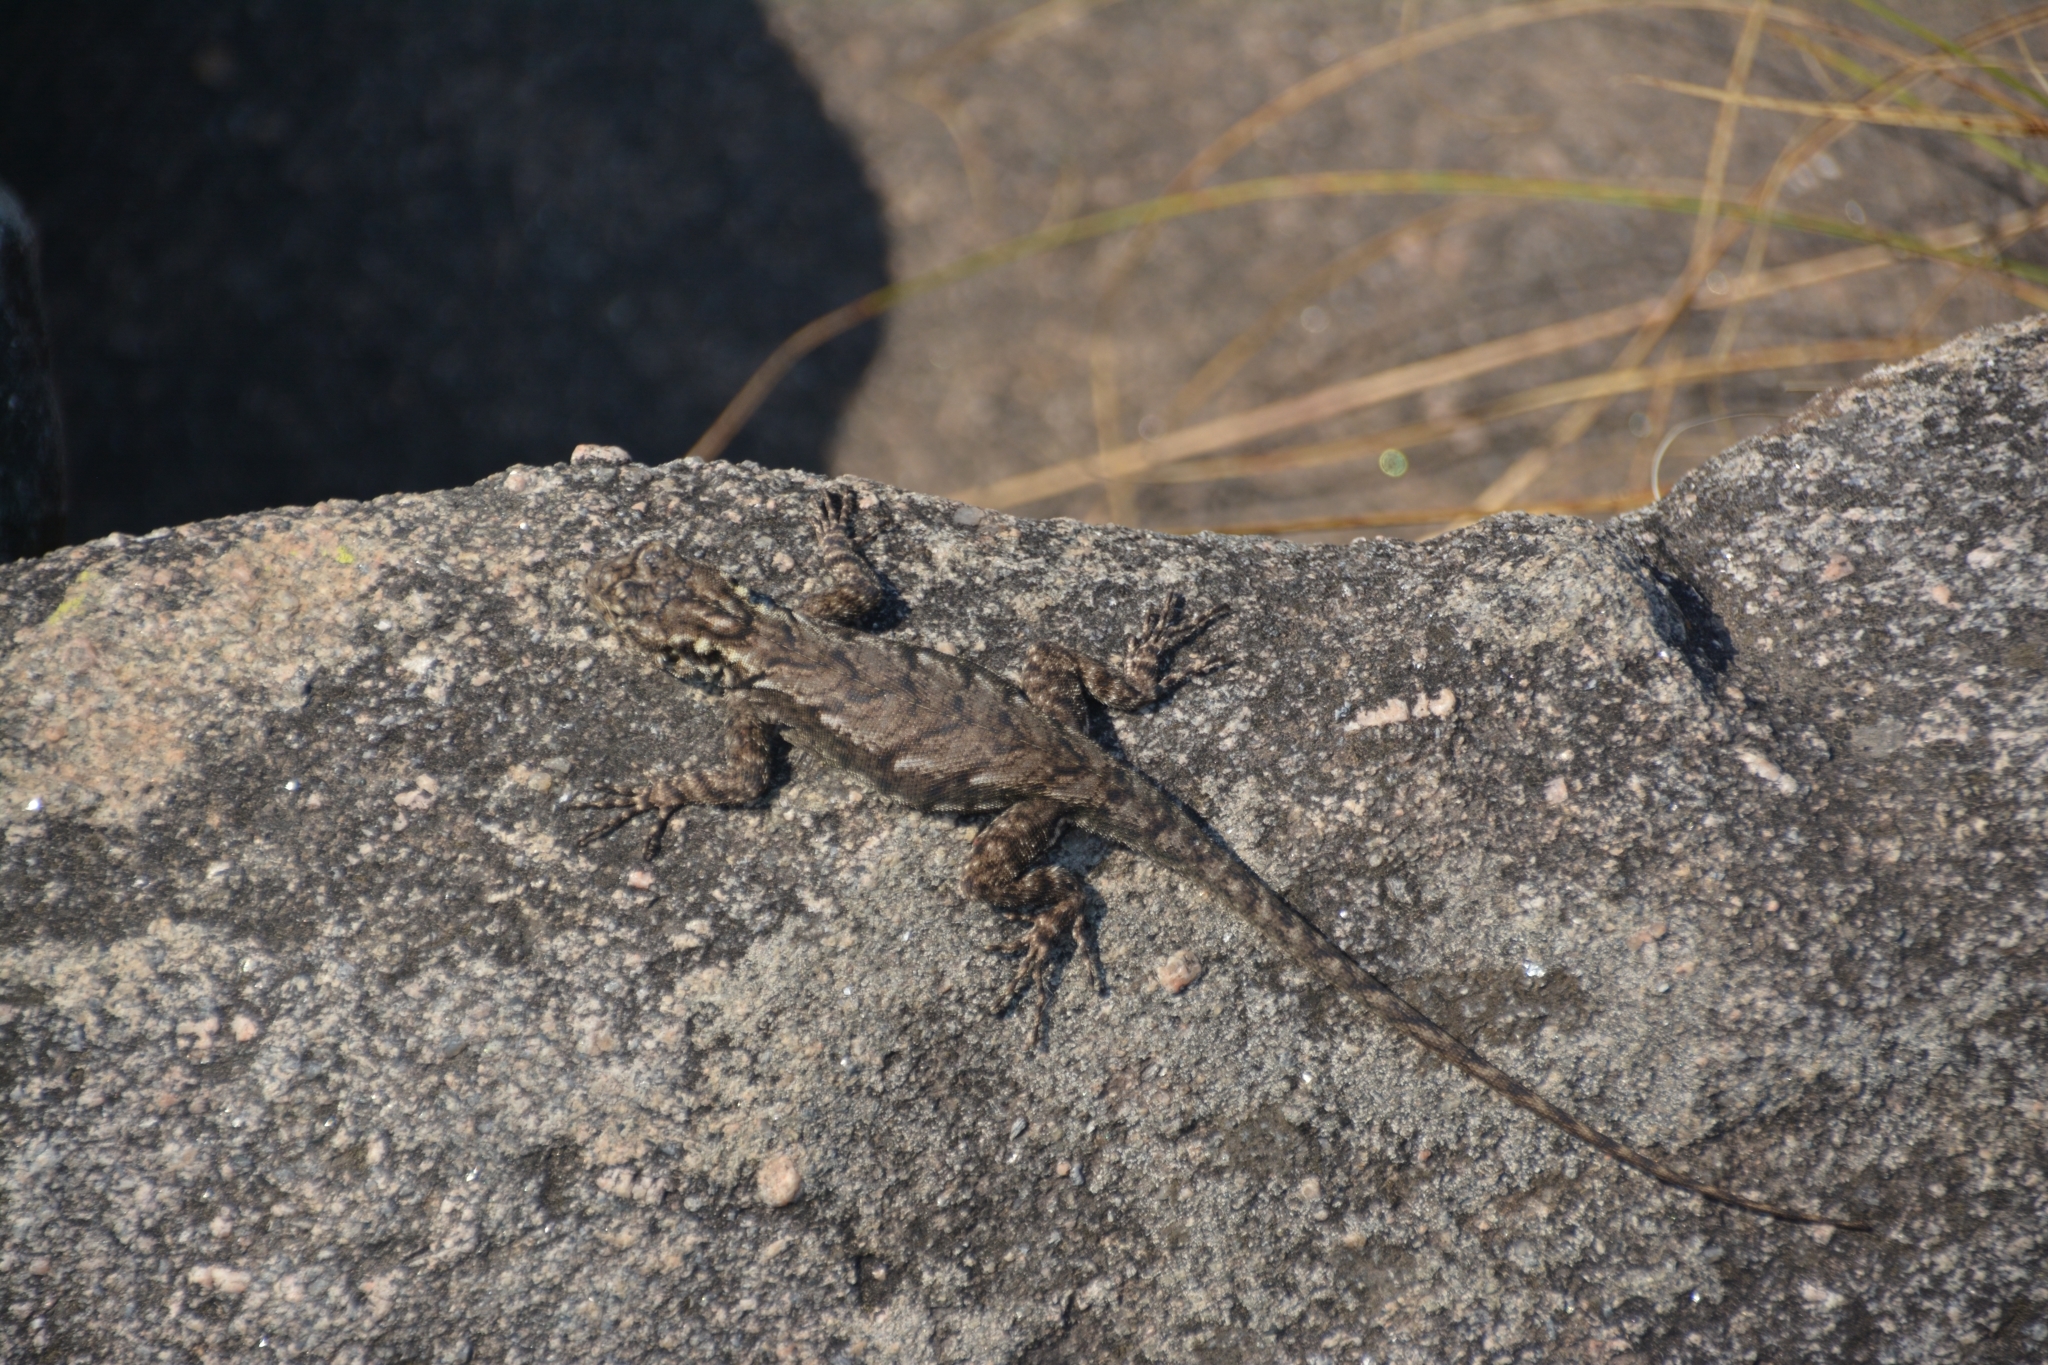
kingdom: Animalia
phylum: Chordata
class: Squamata
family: Tropiduridae
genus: Tropidurus
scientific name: Tropidurus spinulosus
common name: Spiny lava lizard
